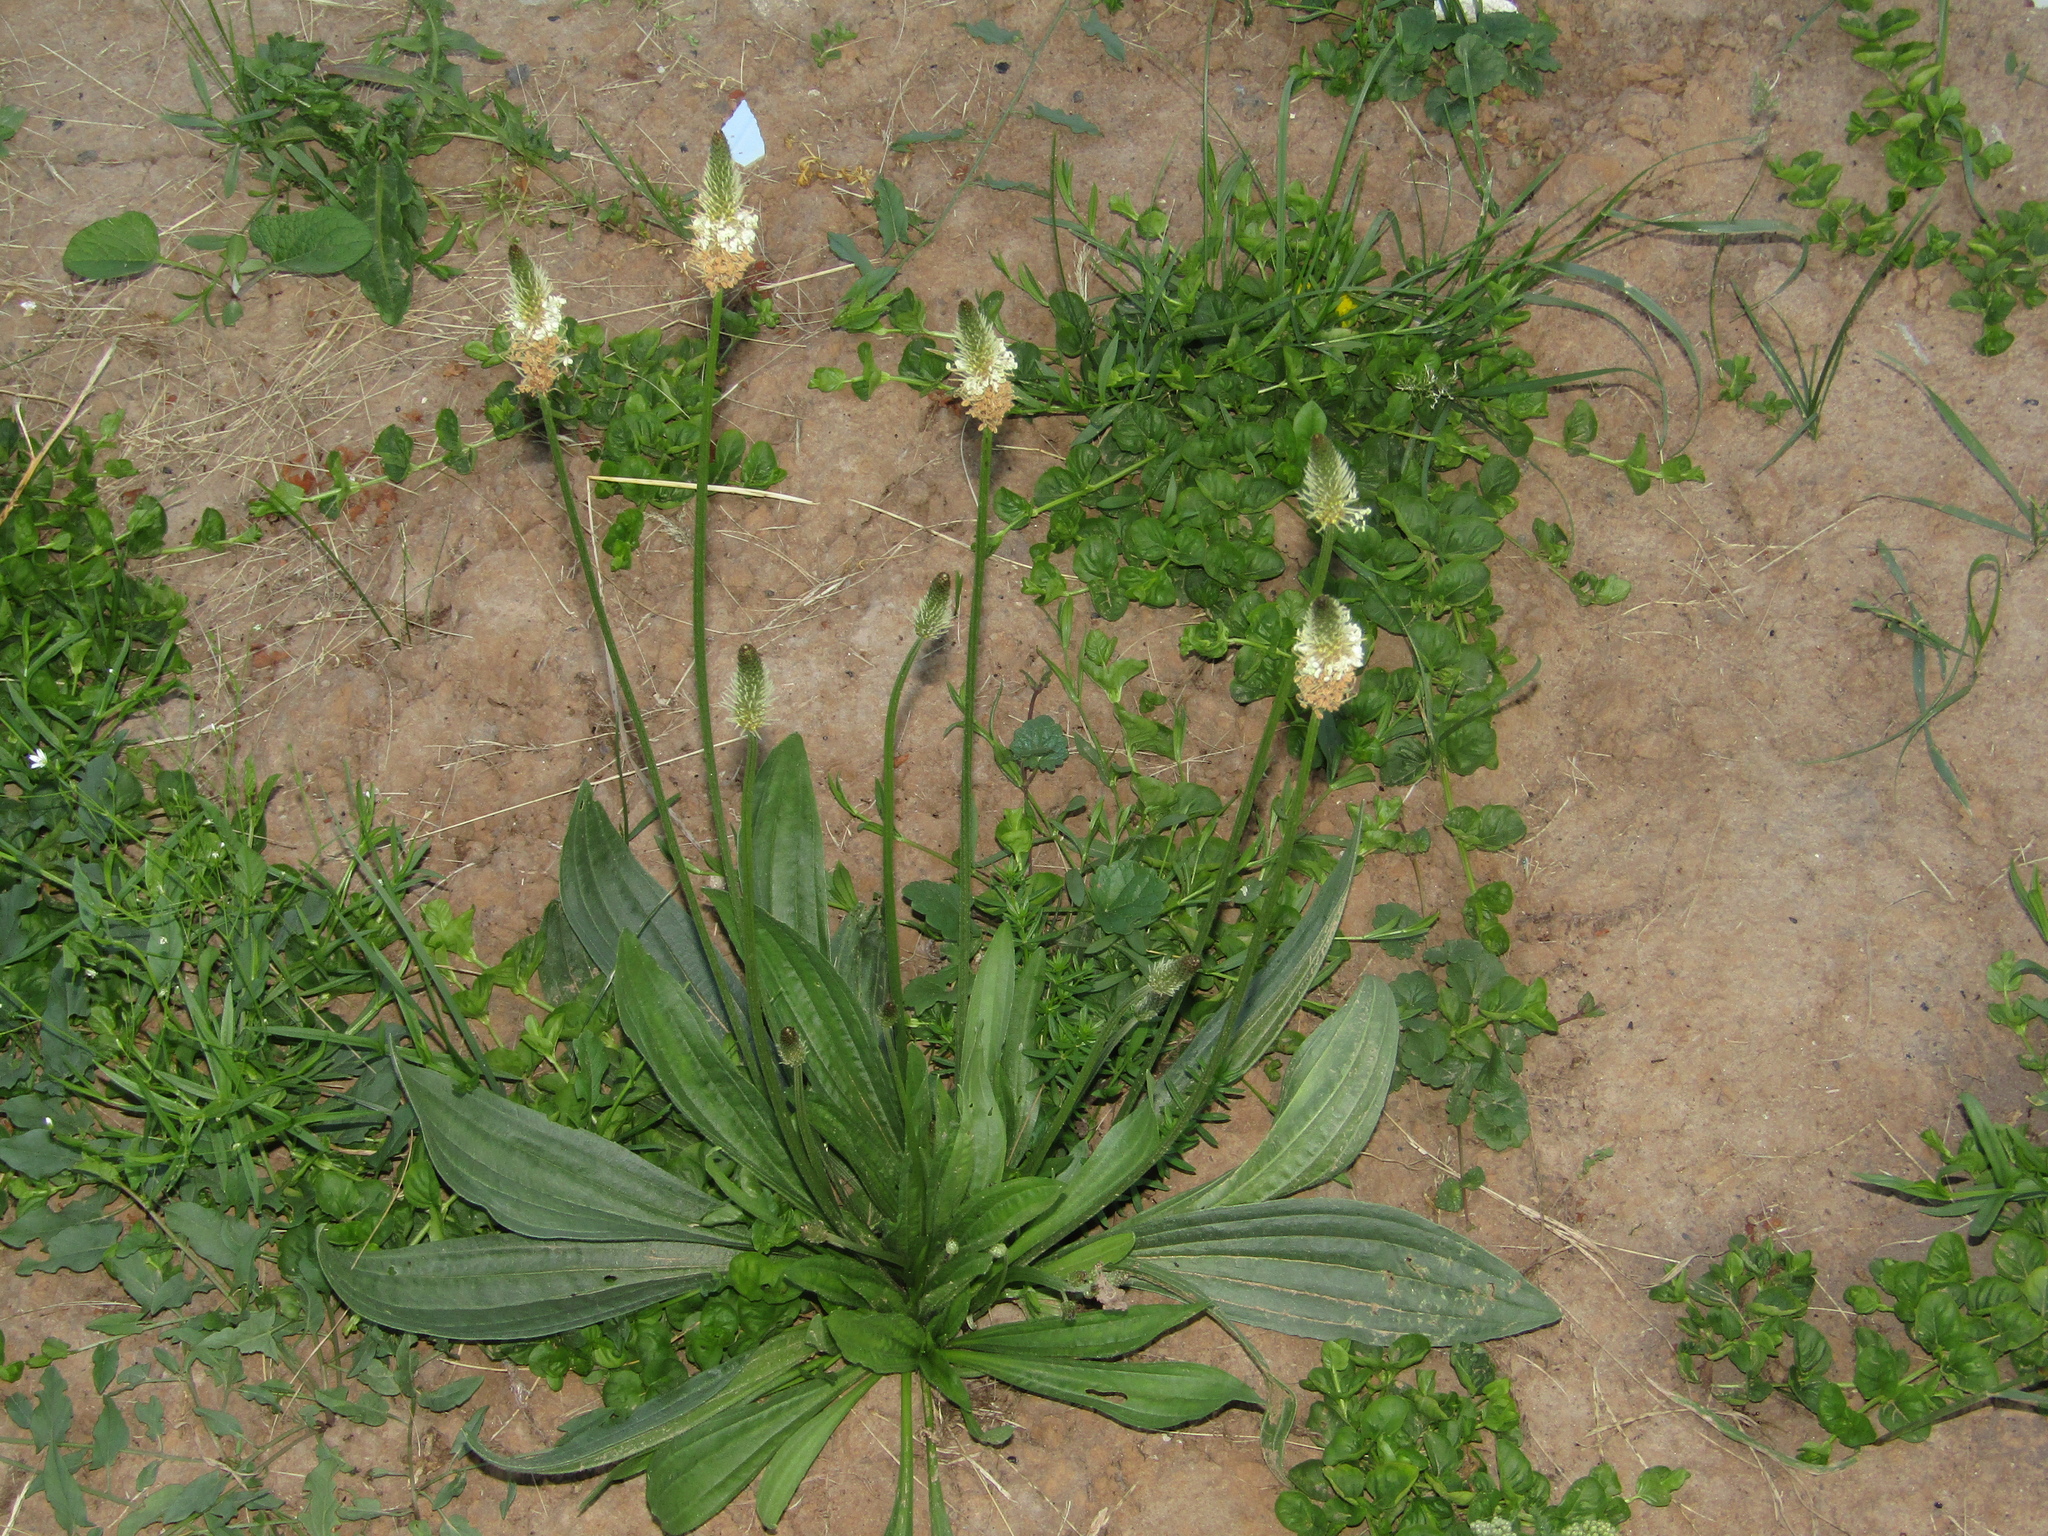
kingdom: Plantae
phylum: Tracheophyta
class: Magnoliopsida
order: Lamiales
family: Plantaginaceae
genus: Plantago
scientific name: Plantago lanceolata
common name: Ribwort plantain
